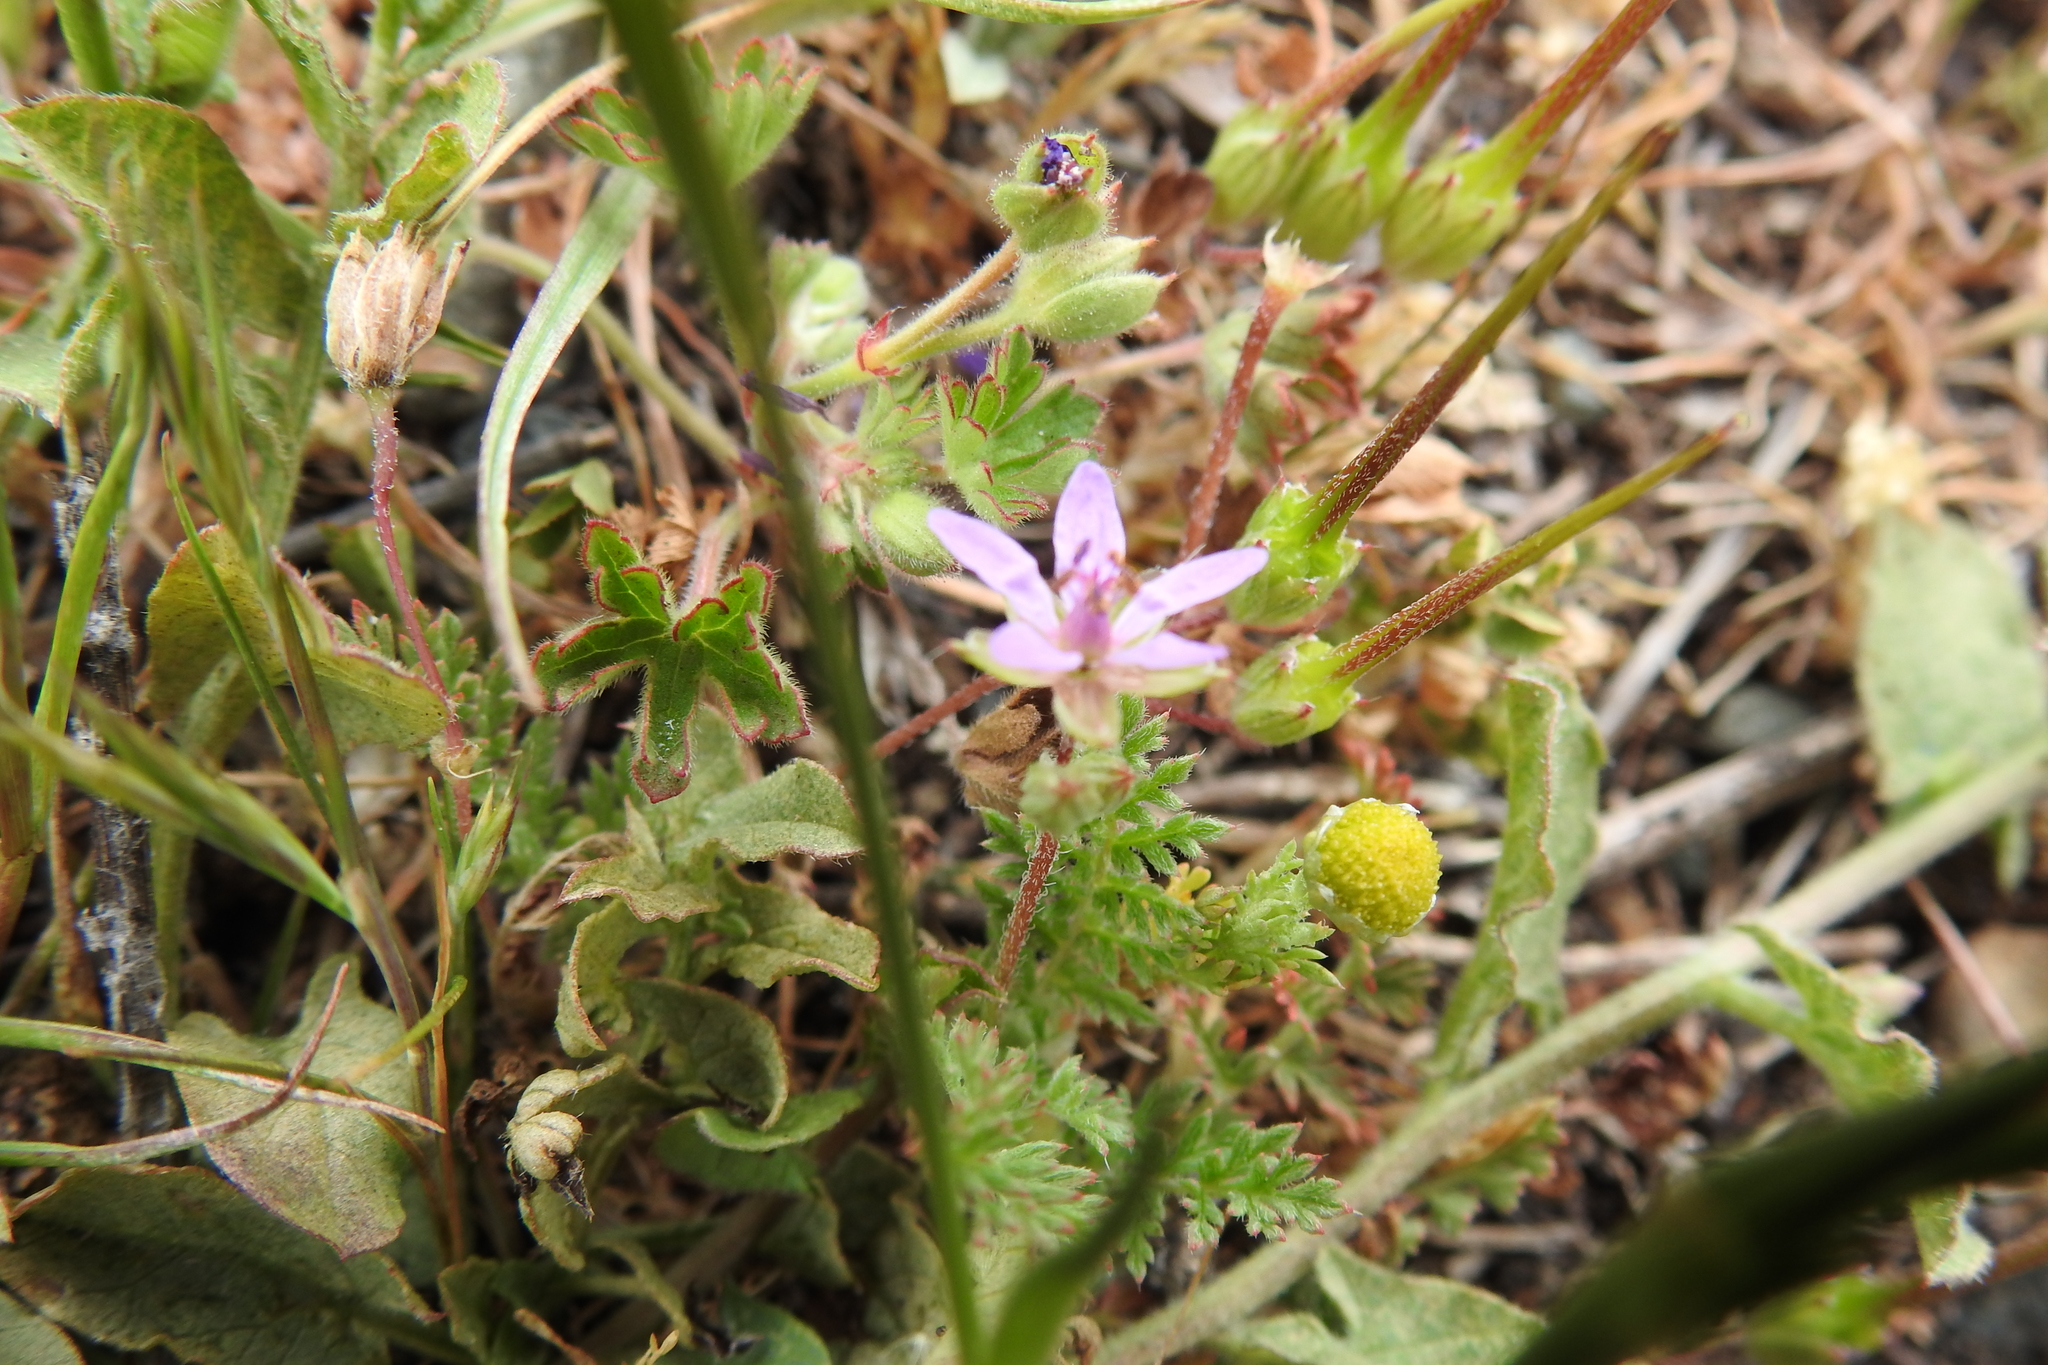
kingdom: Plantae
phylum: Tracheophyta
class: Magnoliopsida
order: Geraniales
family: Geraniaceae
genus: Erodium
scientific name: Erodium cicutarium
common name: Common stork's-bill
